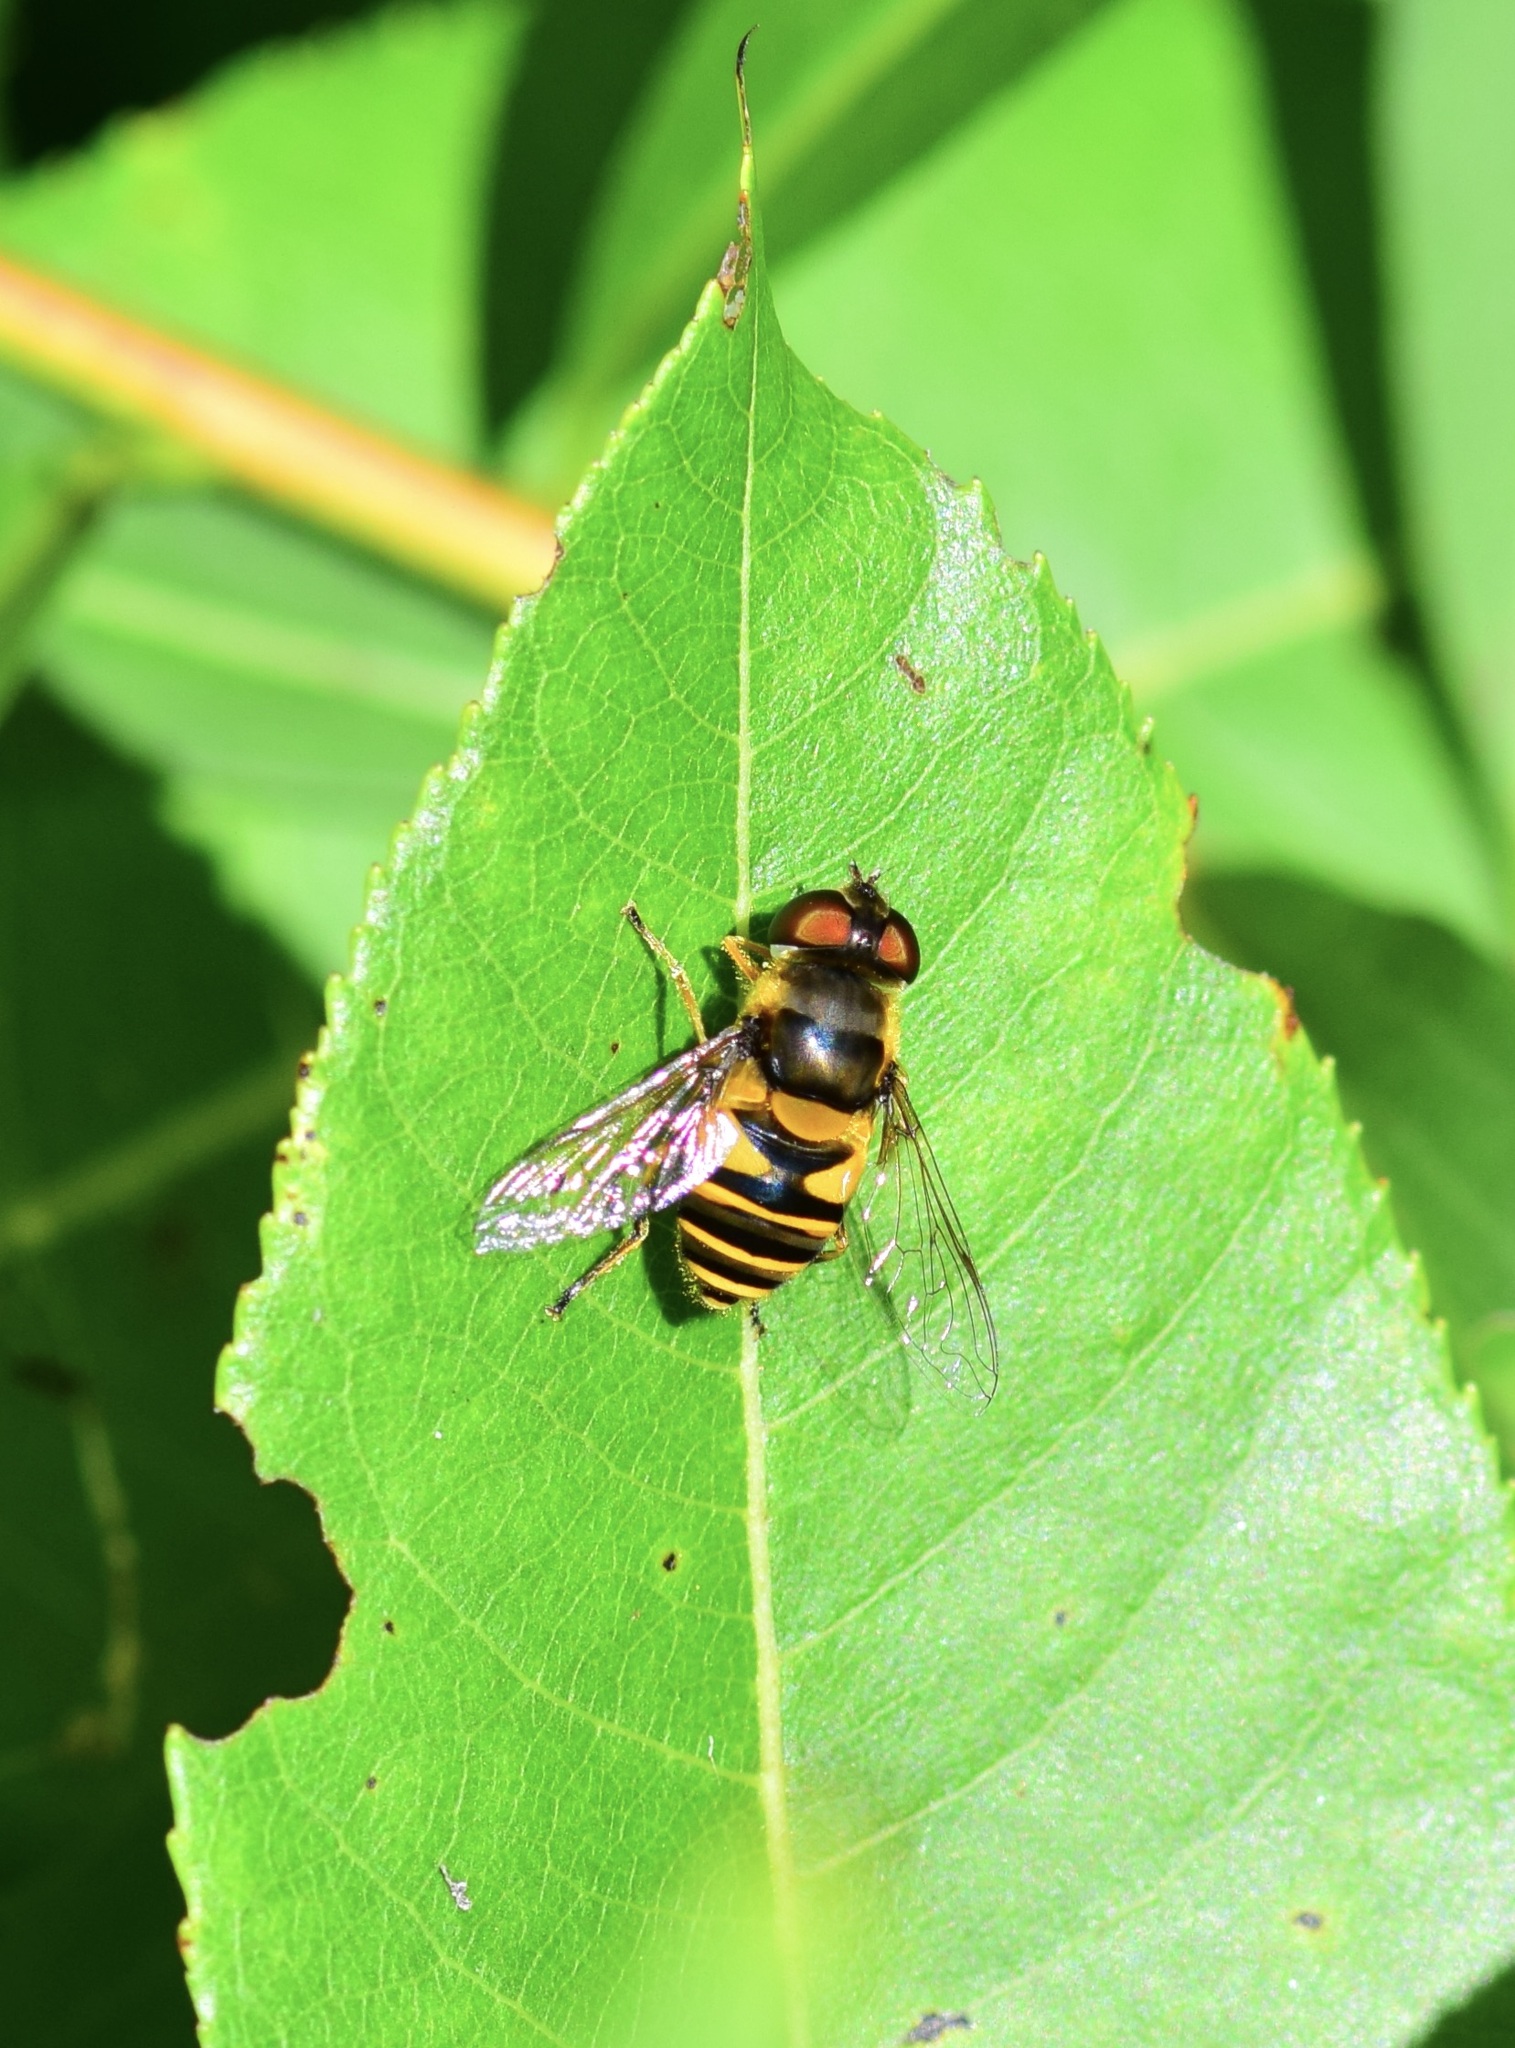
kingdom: Animalia
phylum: Arthropoda
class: Insecta
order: Diptera
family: Syrphidae
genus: Eristalis
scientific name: Eristalis transversa
